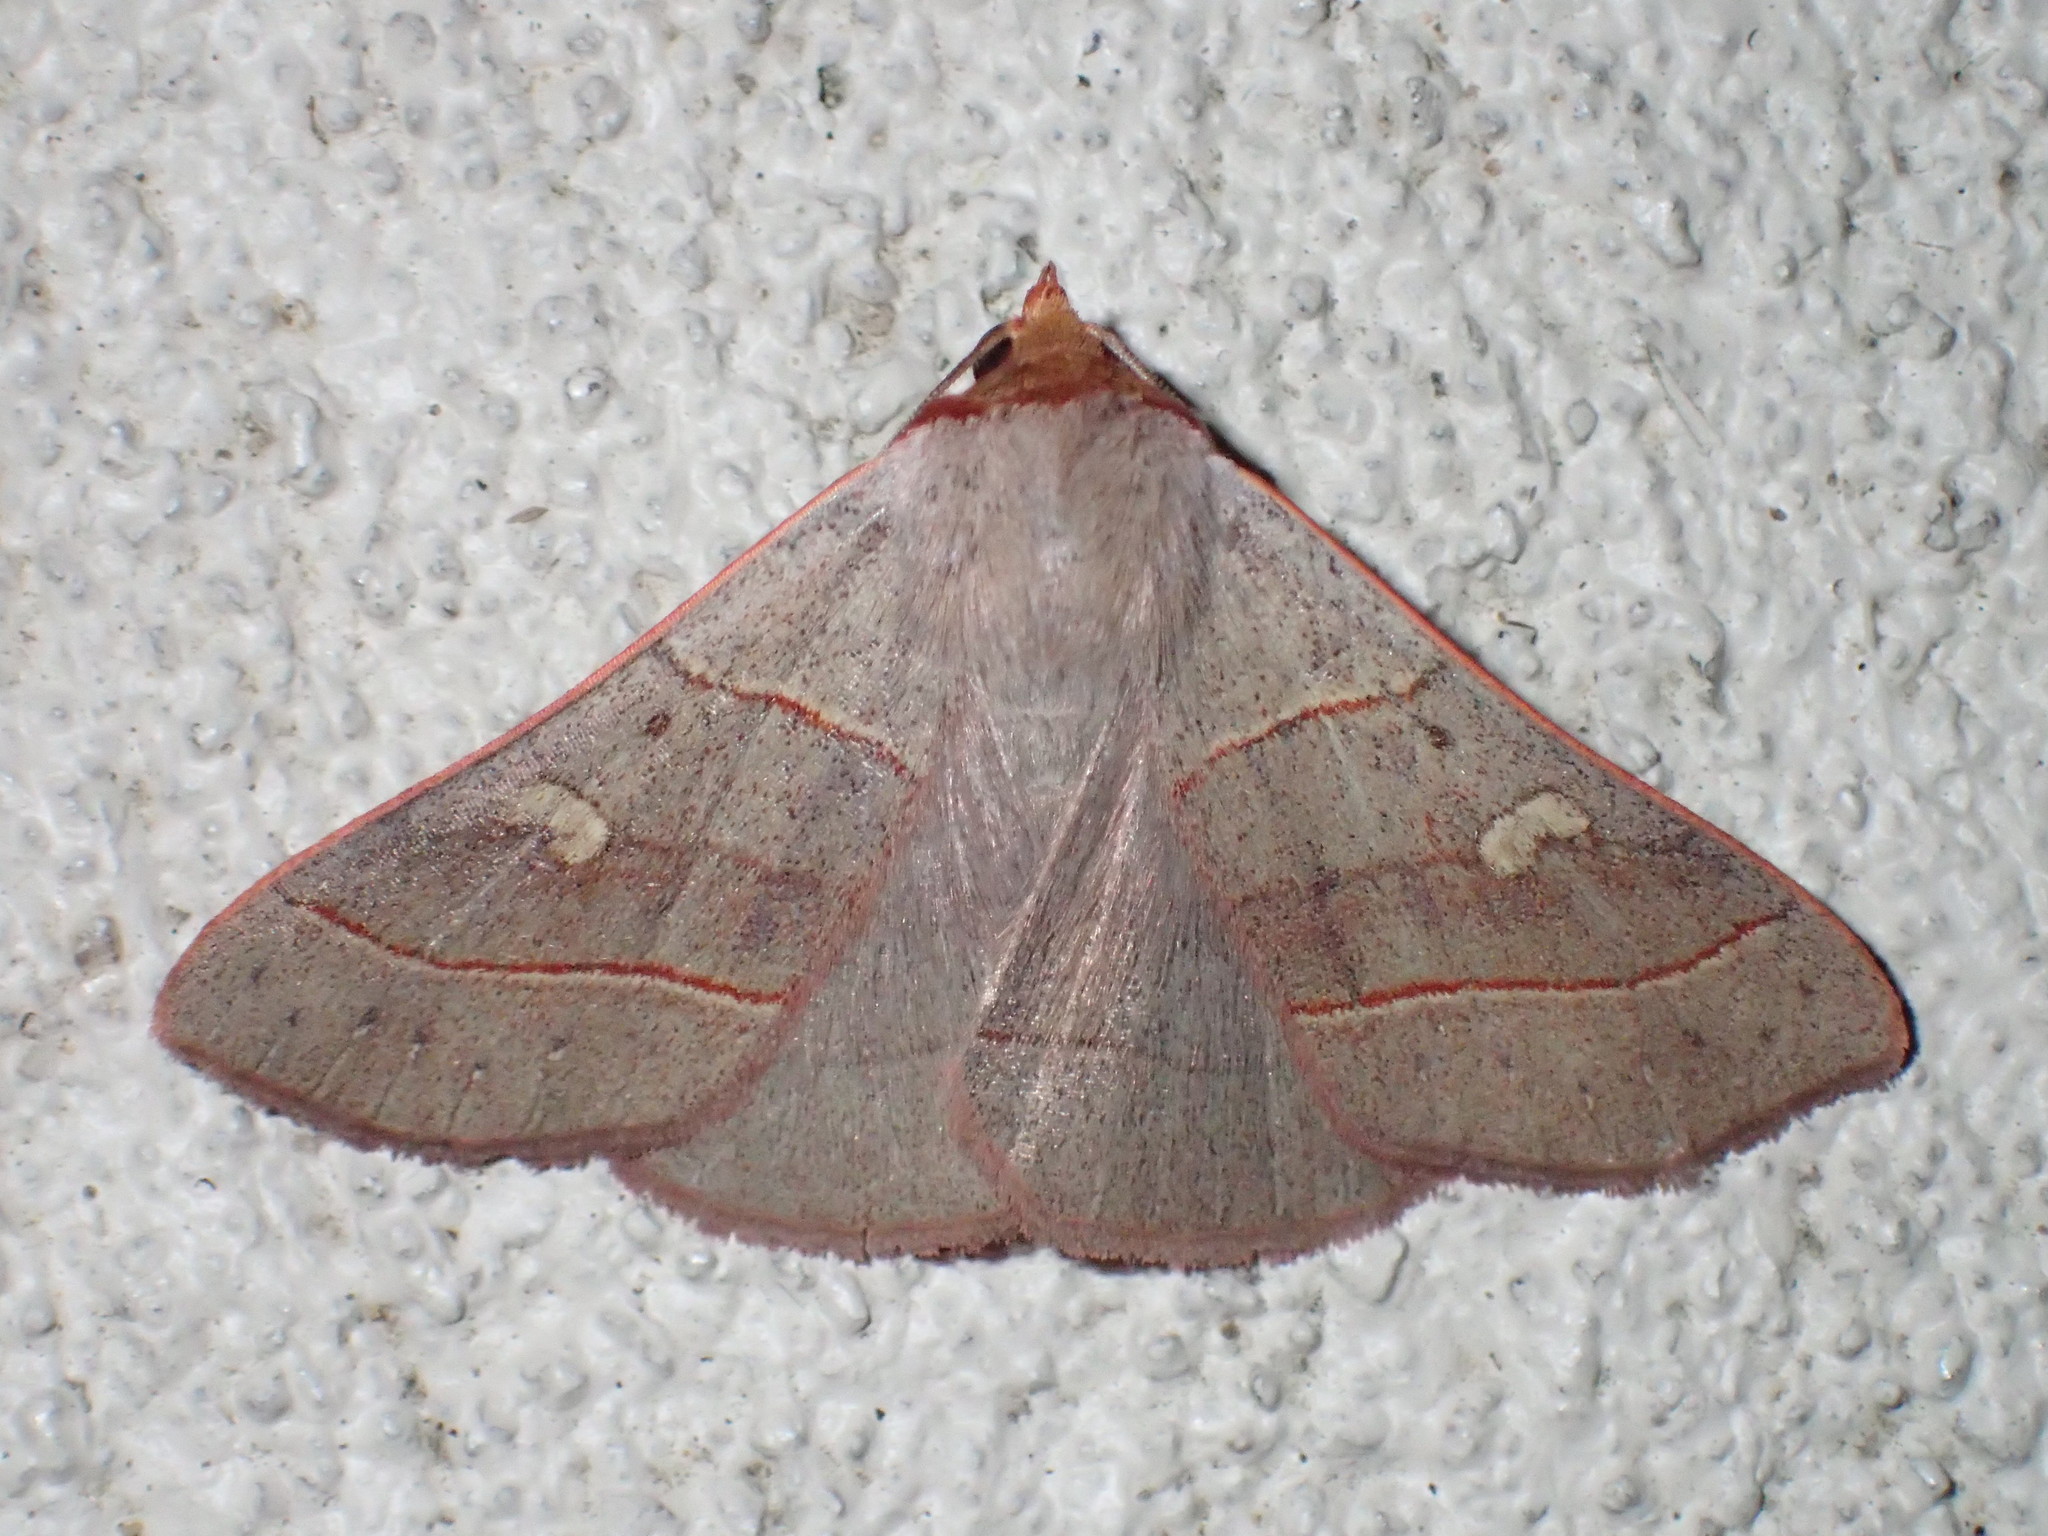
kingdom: Animalia
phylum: Arthropoda
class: Insecta
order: Lepidoptera
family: Erebidae
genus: Panopoda
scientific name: Panopoda rufimargo
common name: Red-lined panopoda moth
